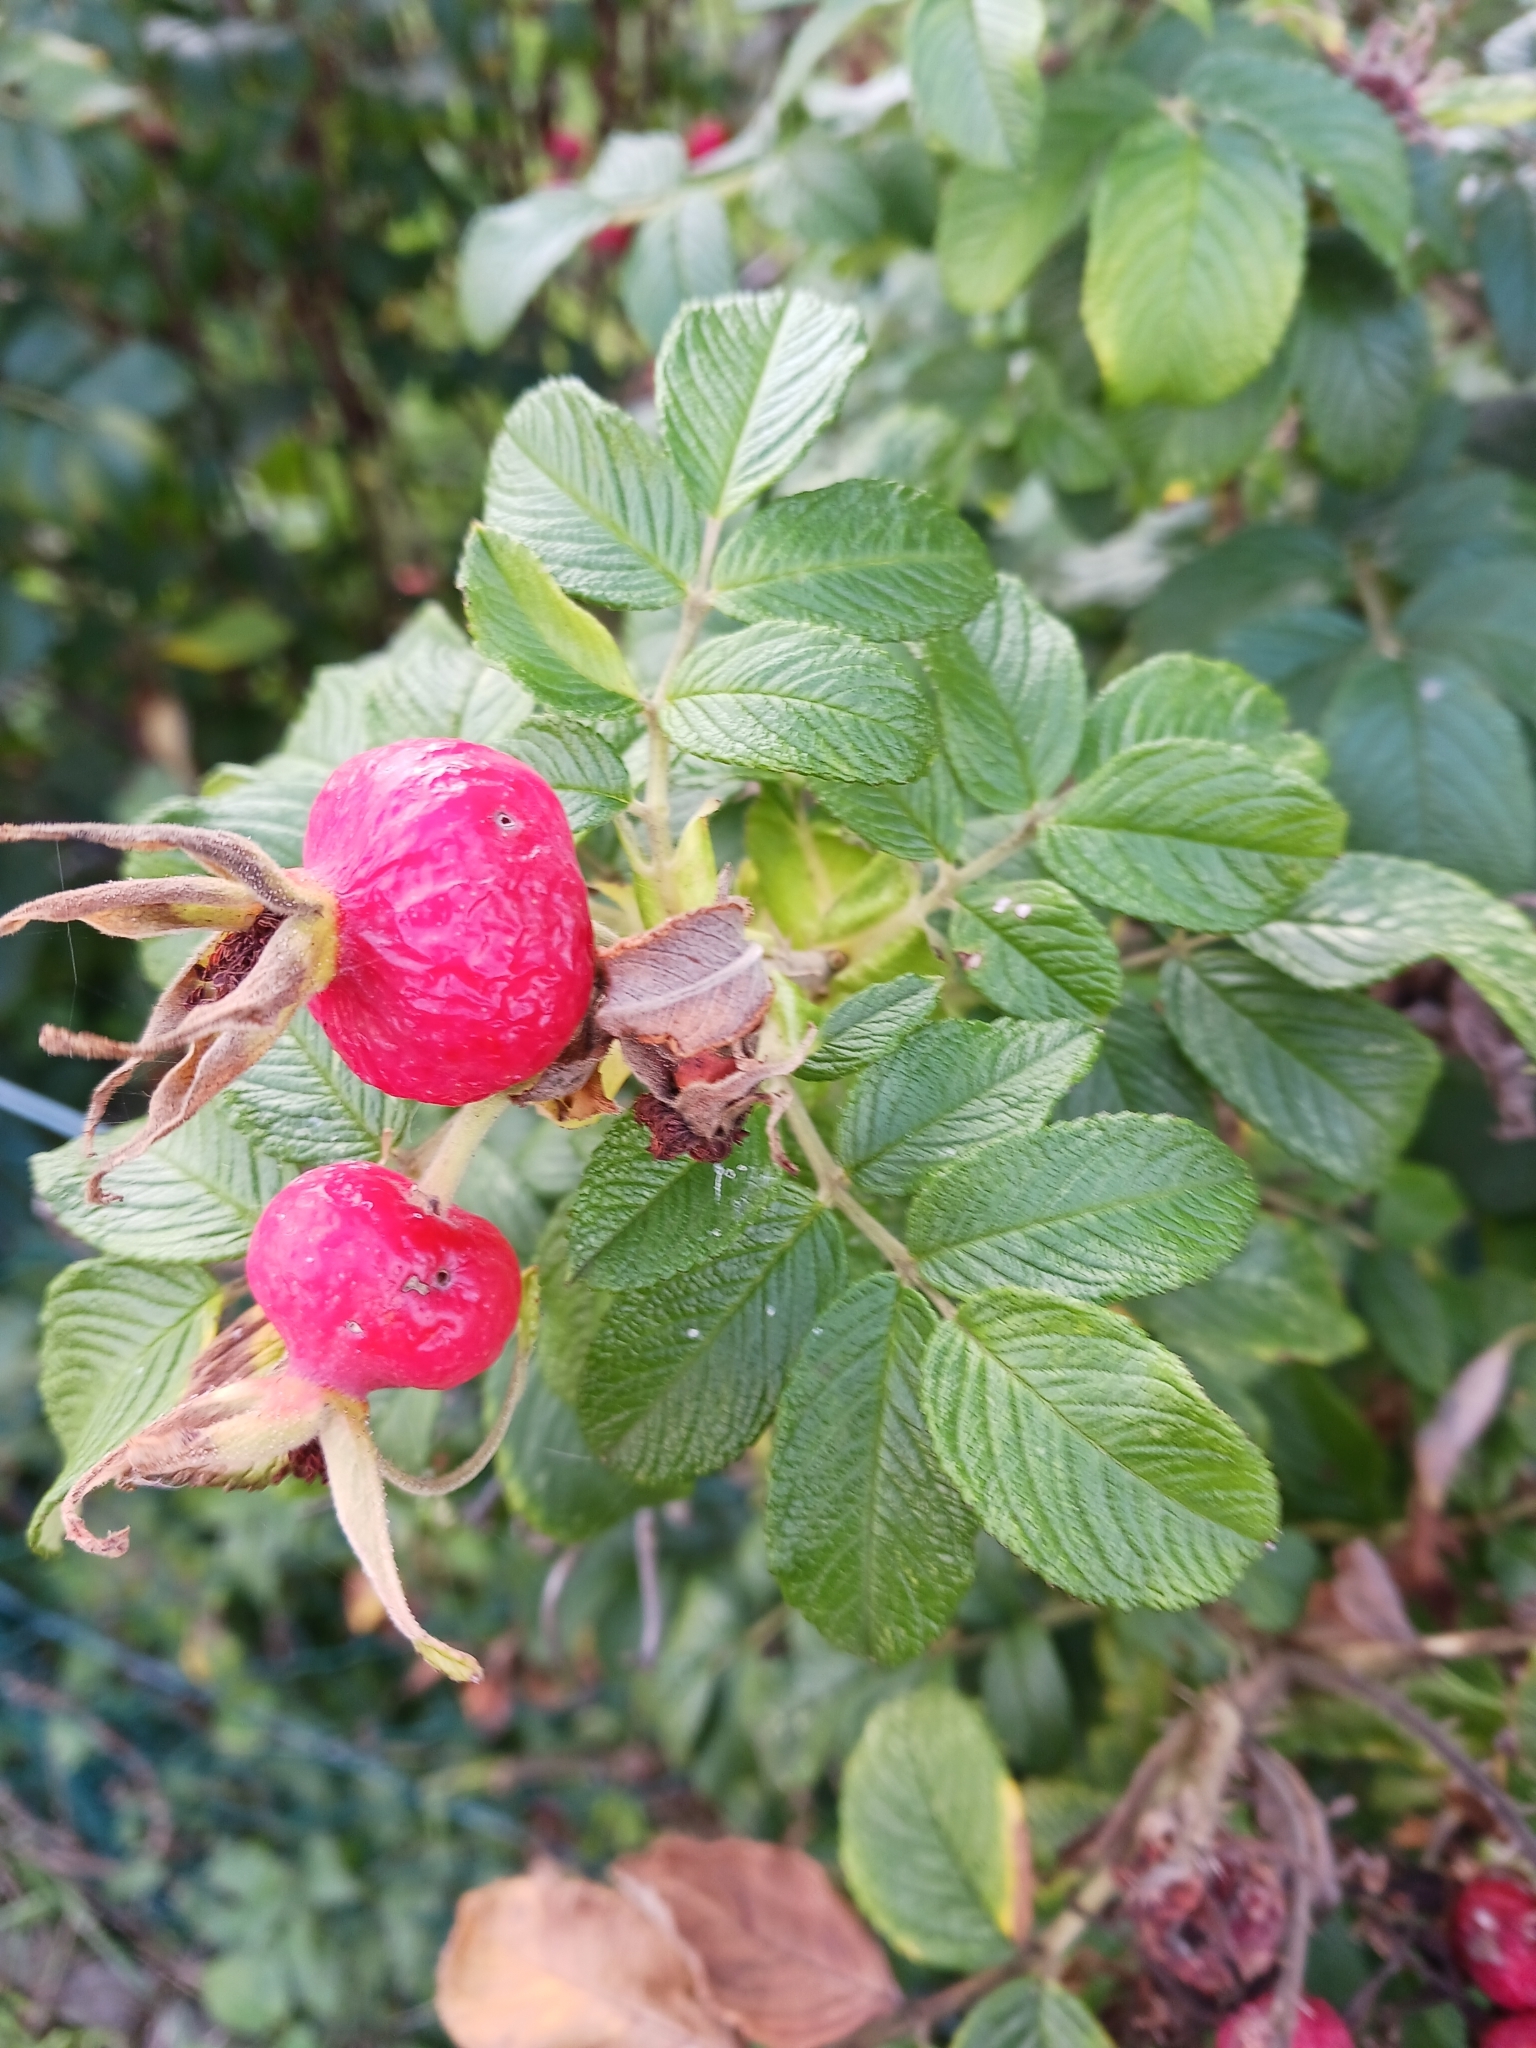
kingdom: Plantae
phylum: Tracheophyta
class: Magnoliopsida
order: Rosales
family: Rosaceae
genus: Rosa
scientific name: Rosa rugosa
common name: Japanese rose
